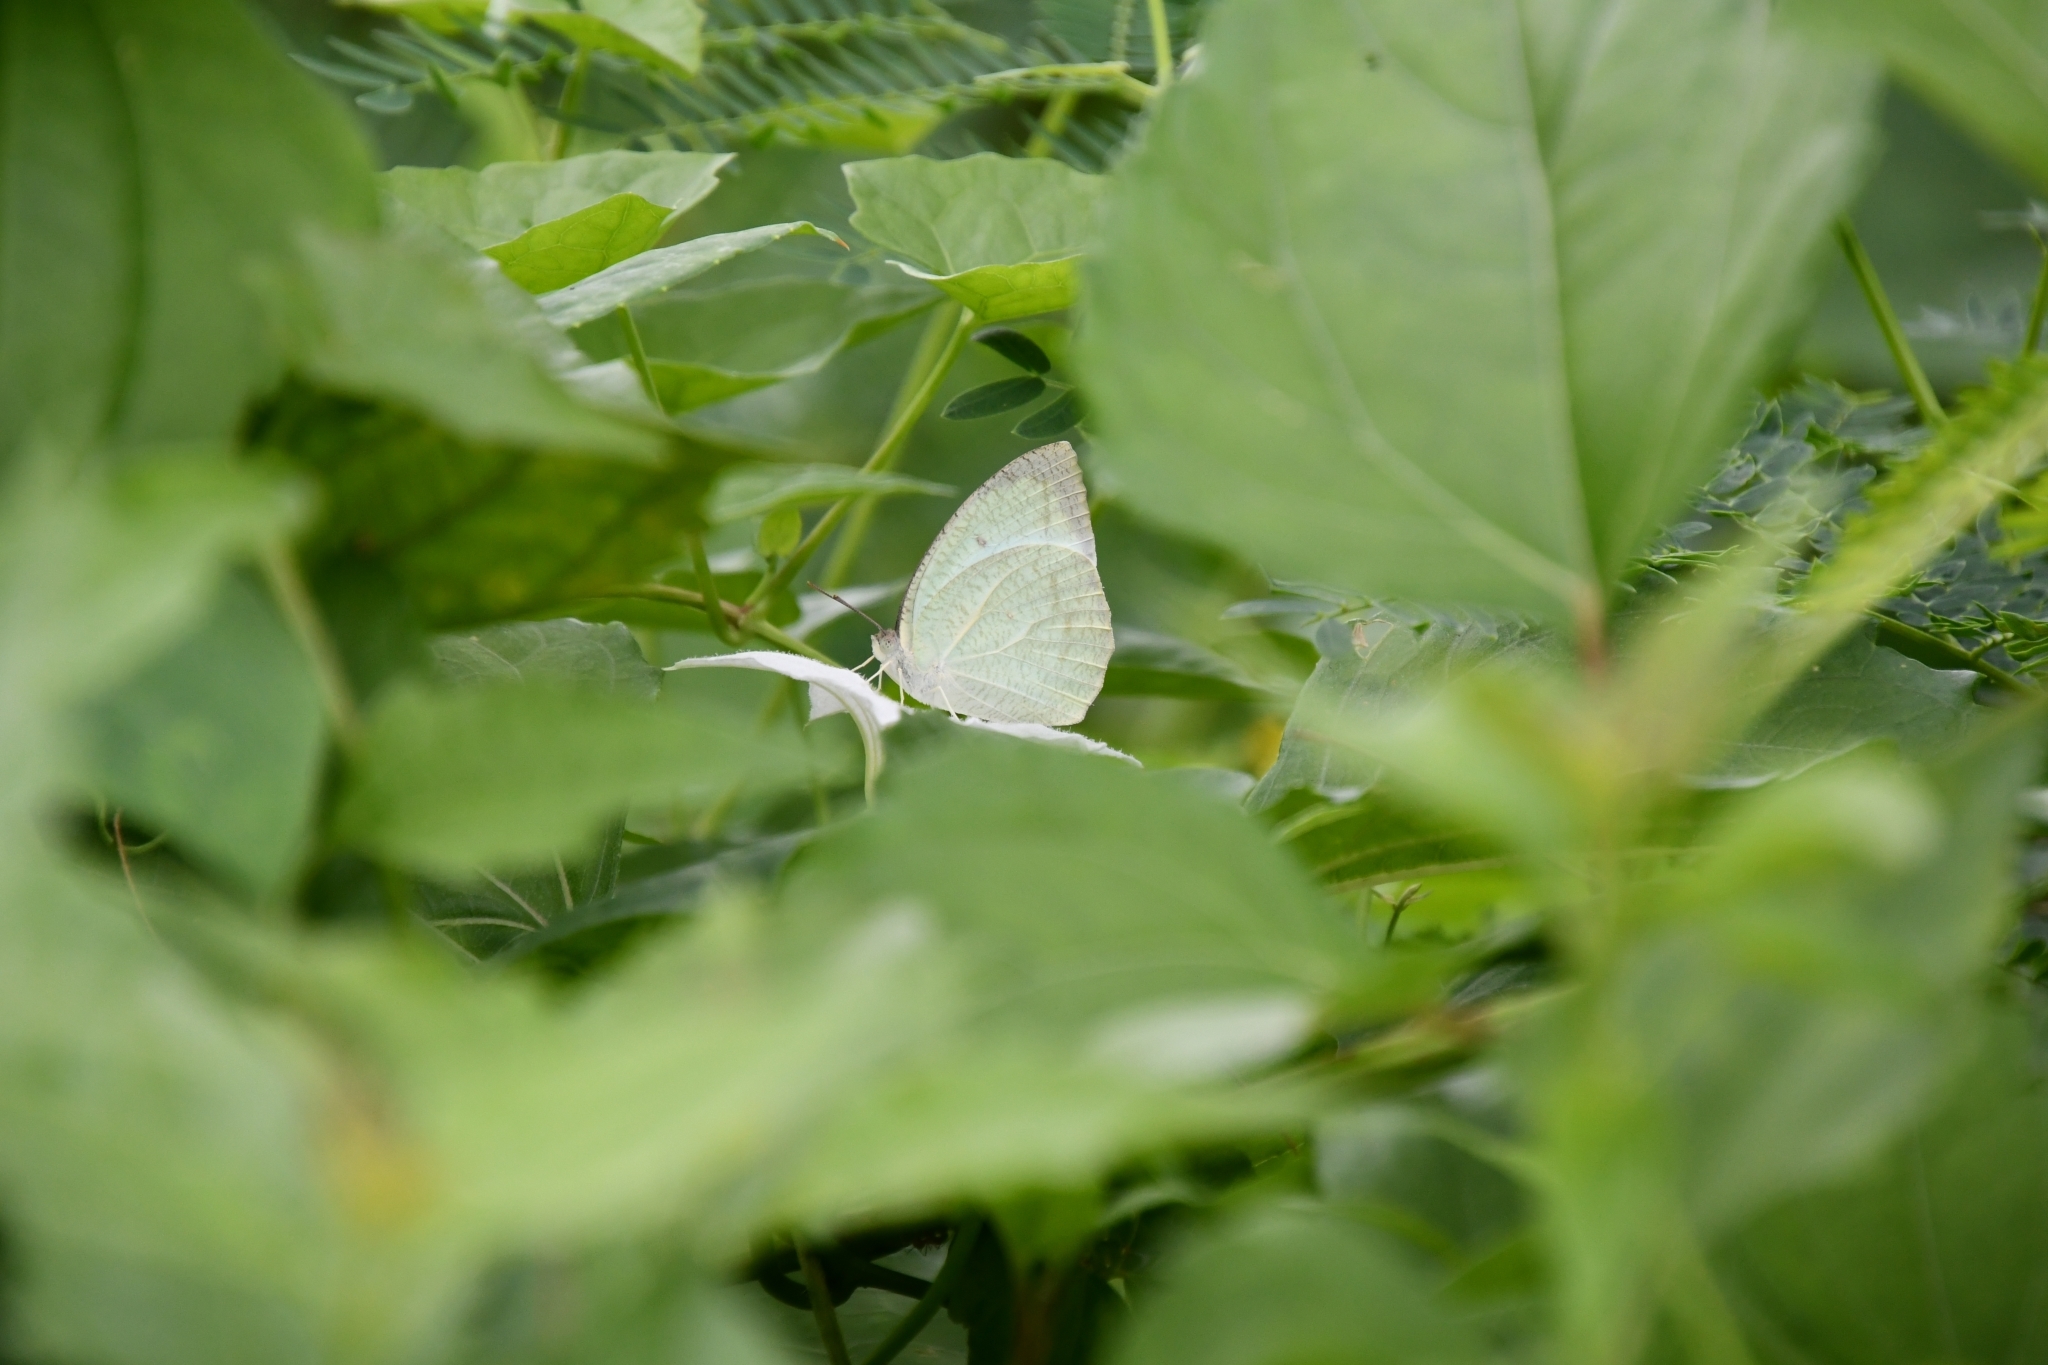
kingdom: Animalia
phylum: Arthropoda
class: Insecta
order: Lepidoptera
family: Pieridae
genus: Catopsilia
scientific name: Catopsilia pyranthe
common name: Mottled emigrant
